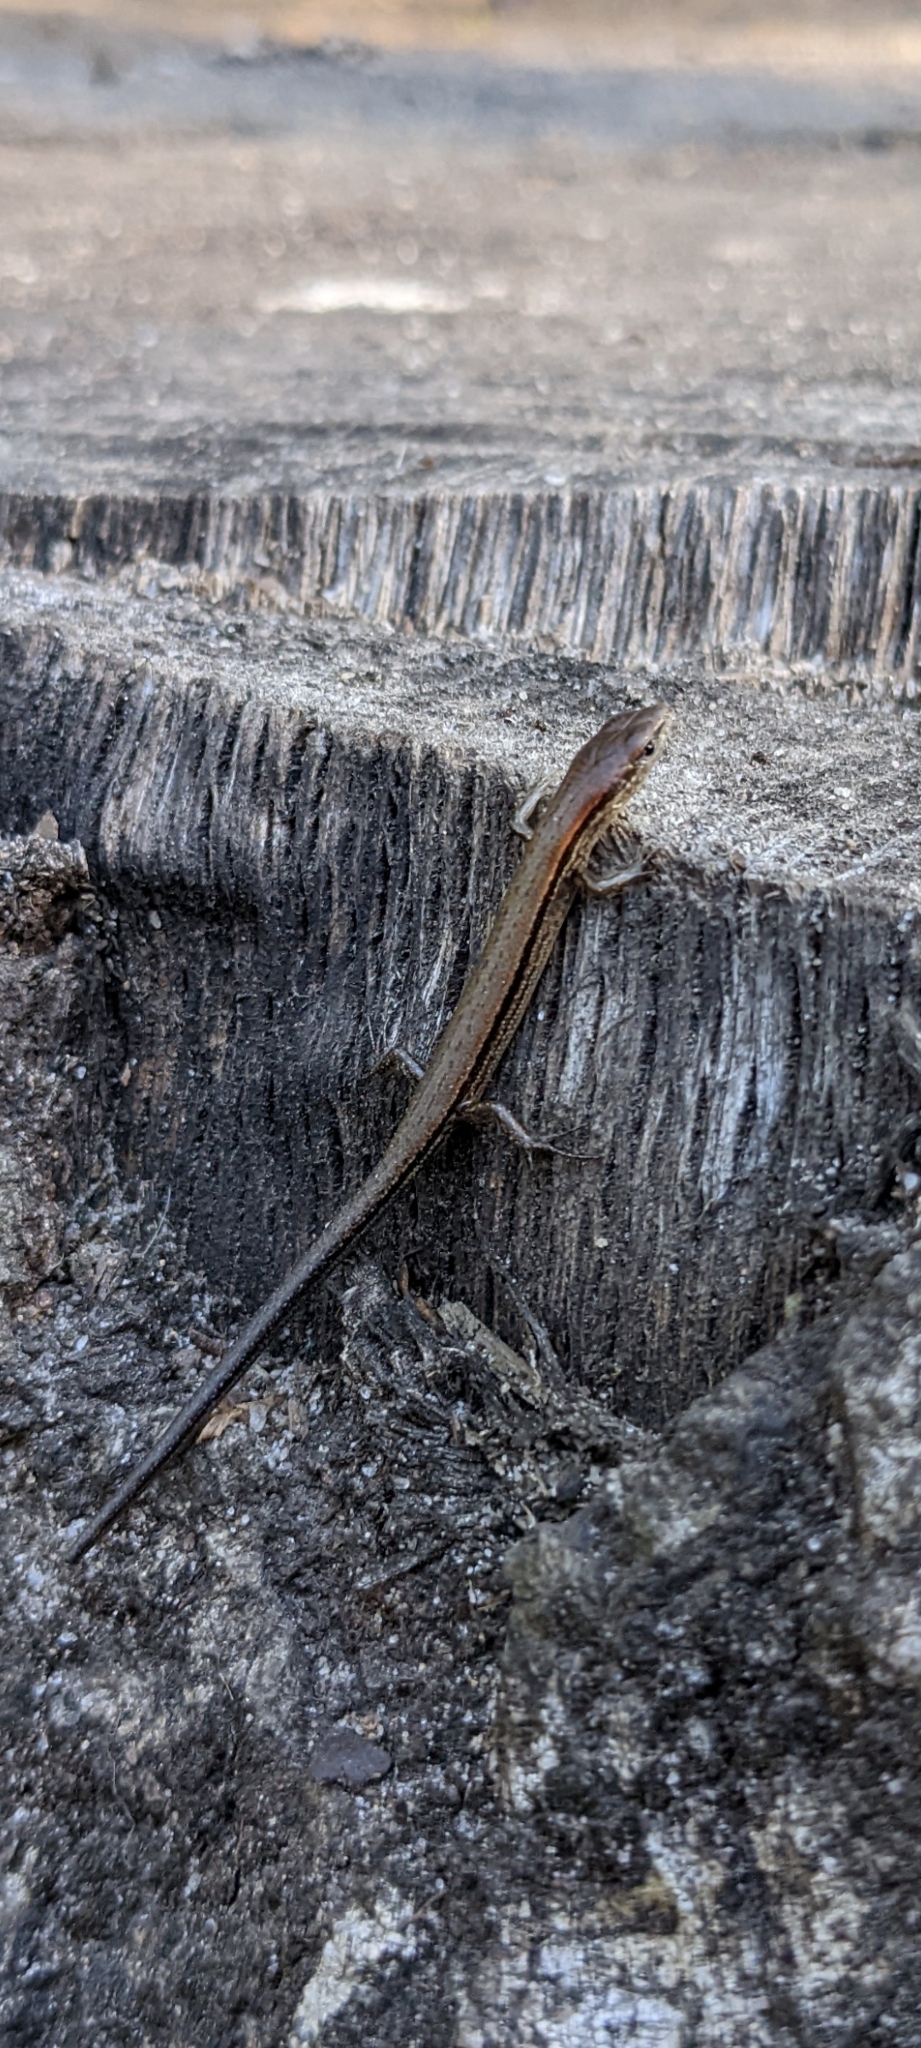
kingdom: Animalia
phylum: Chordata
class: Squamata
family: Scincidae
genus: Scincella
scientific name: Scincella lateralis
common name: Ground skink
